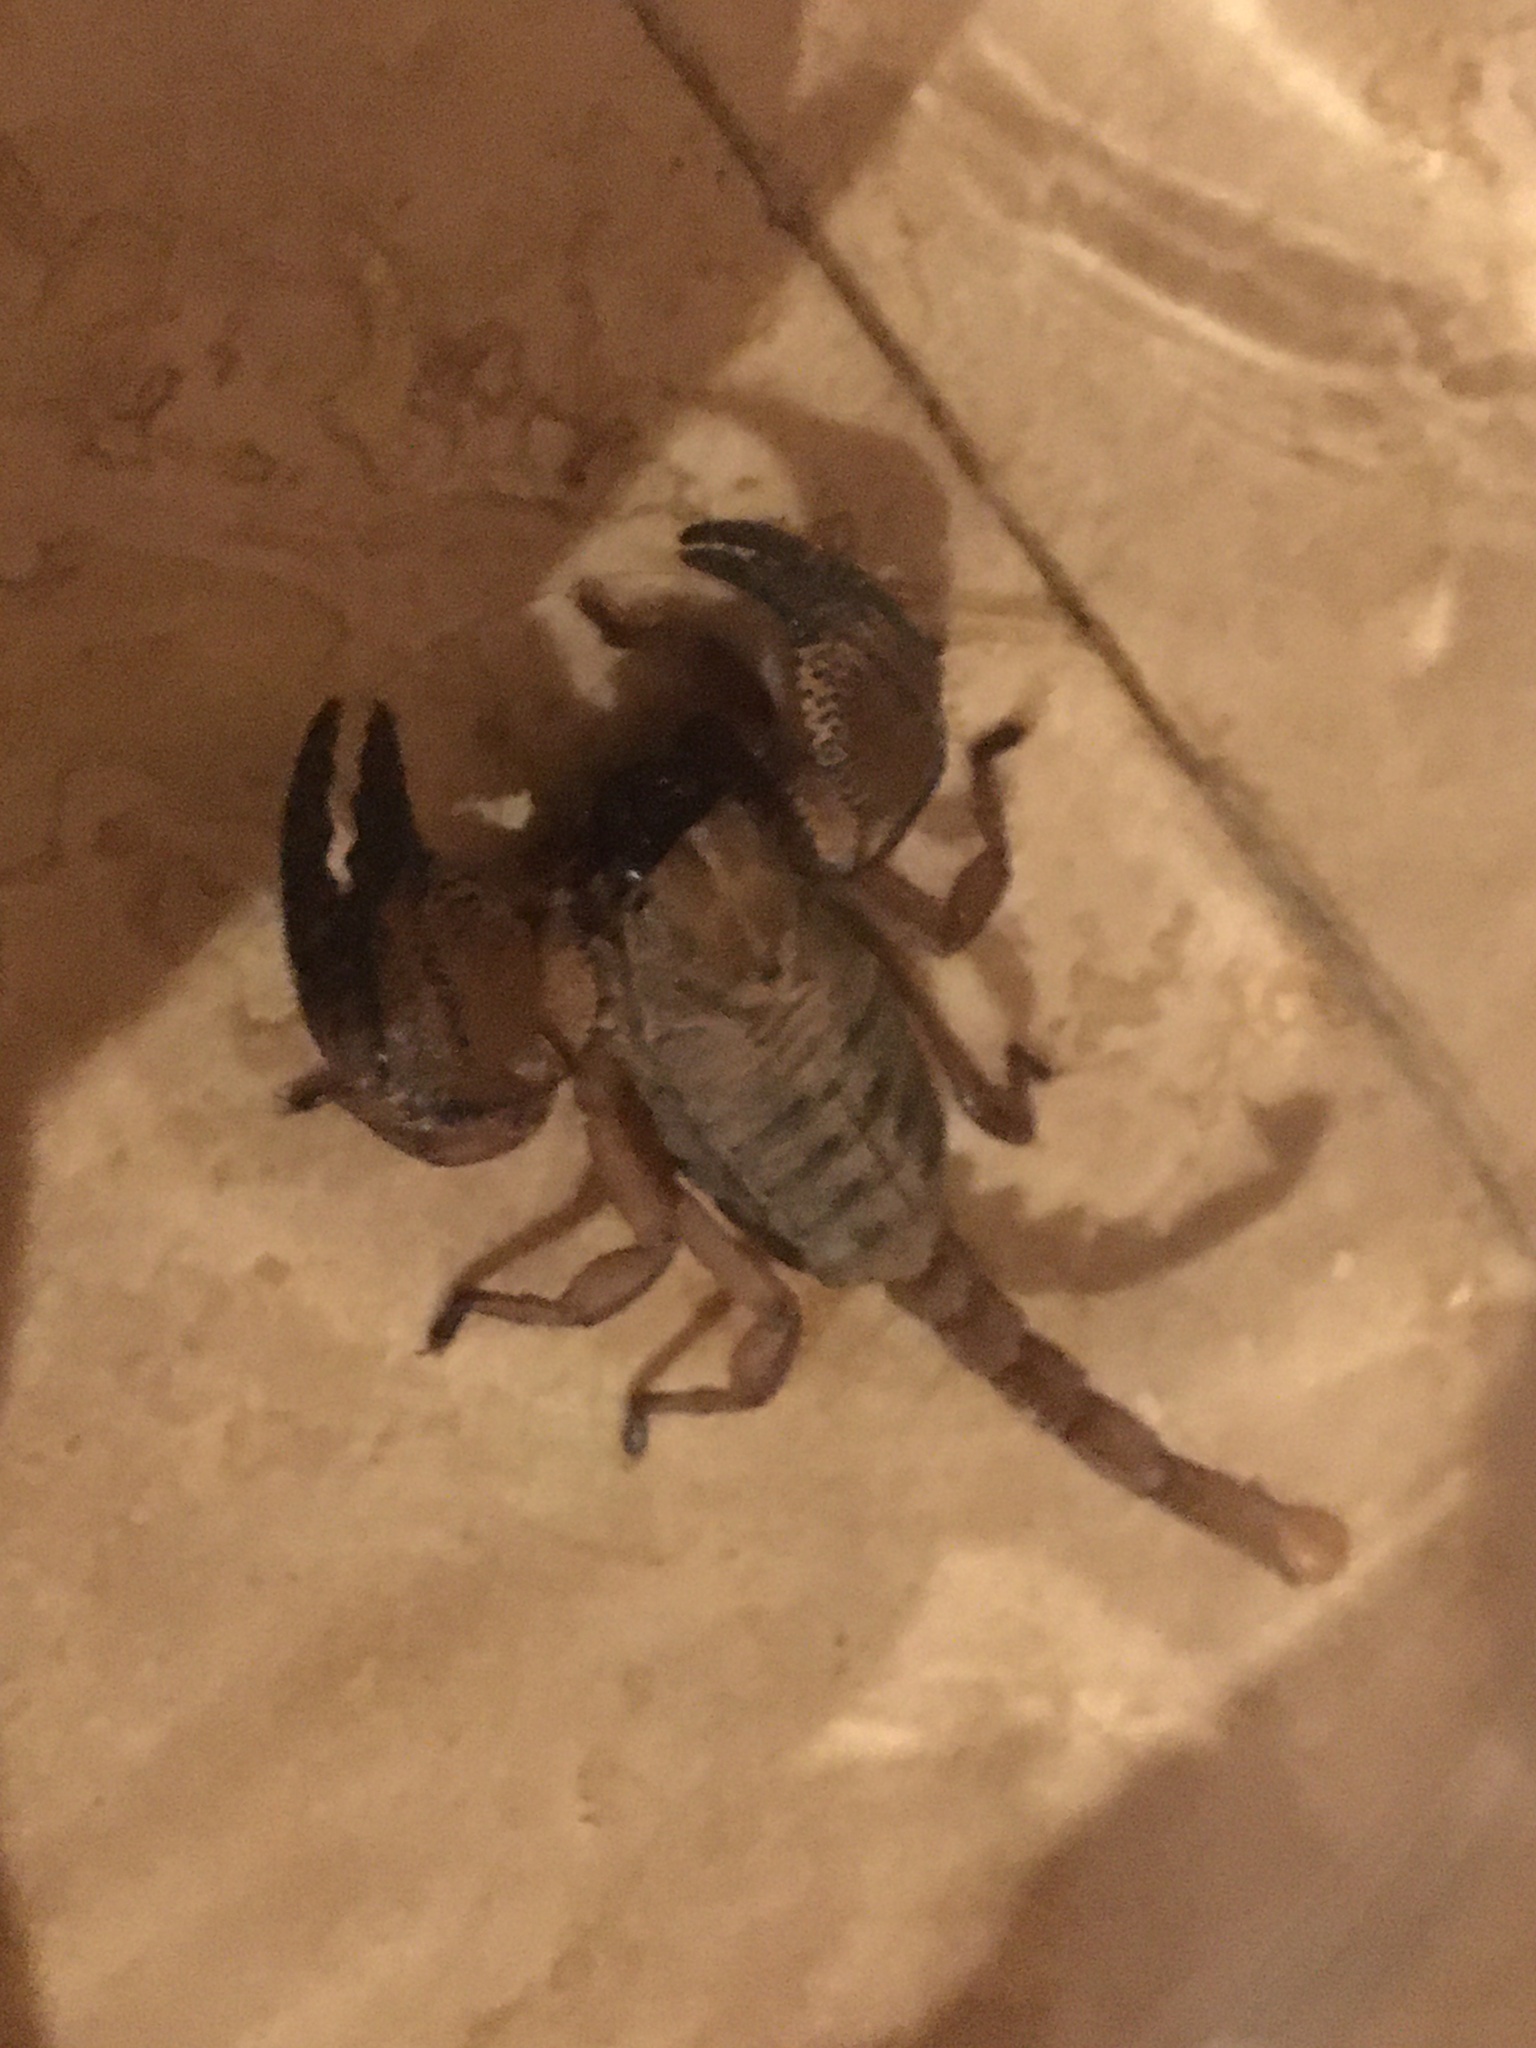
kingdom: Animalia
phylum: Arthropoda
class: Arachnida
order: Scorpiones
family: Scorpionidae
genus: Opistophthalmus
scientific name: Opistophthalmus macer
